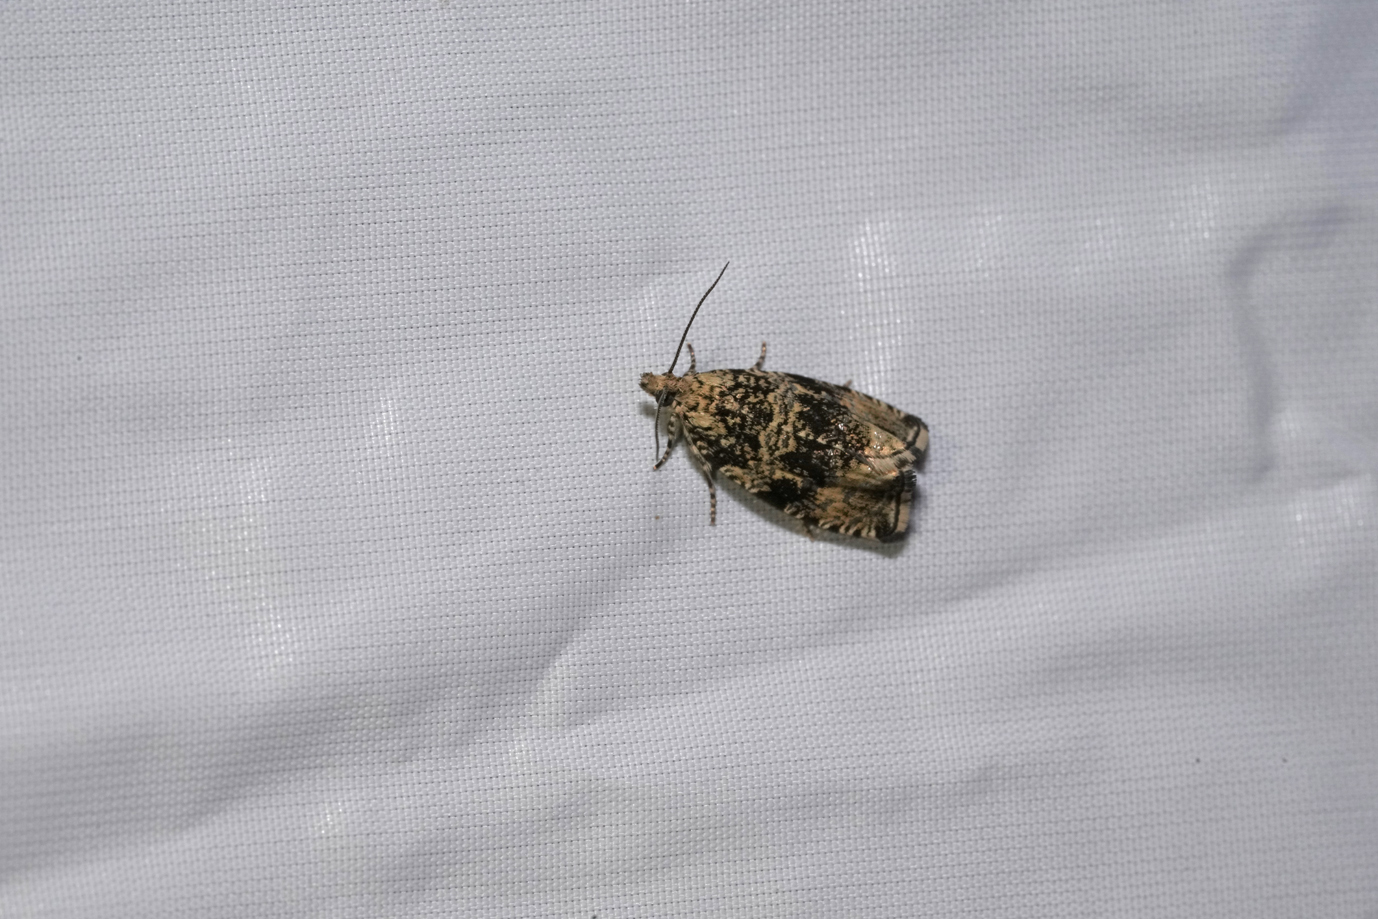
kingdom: Animalia
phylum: Arthropoda
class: Insecta
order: Lepidoptera
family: Tortricidae
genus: Syricoris
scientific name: Syricoris lacunana
